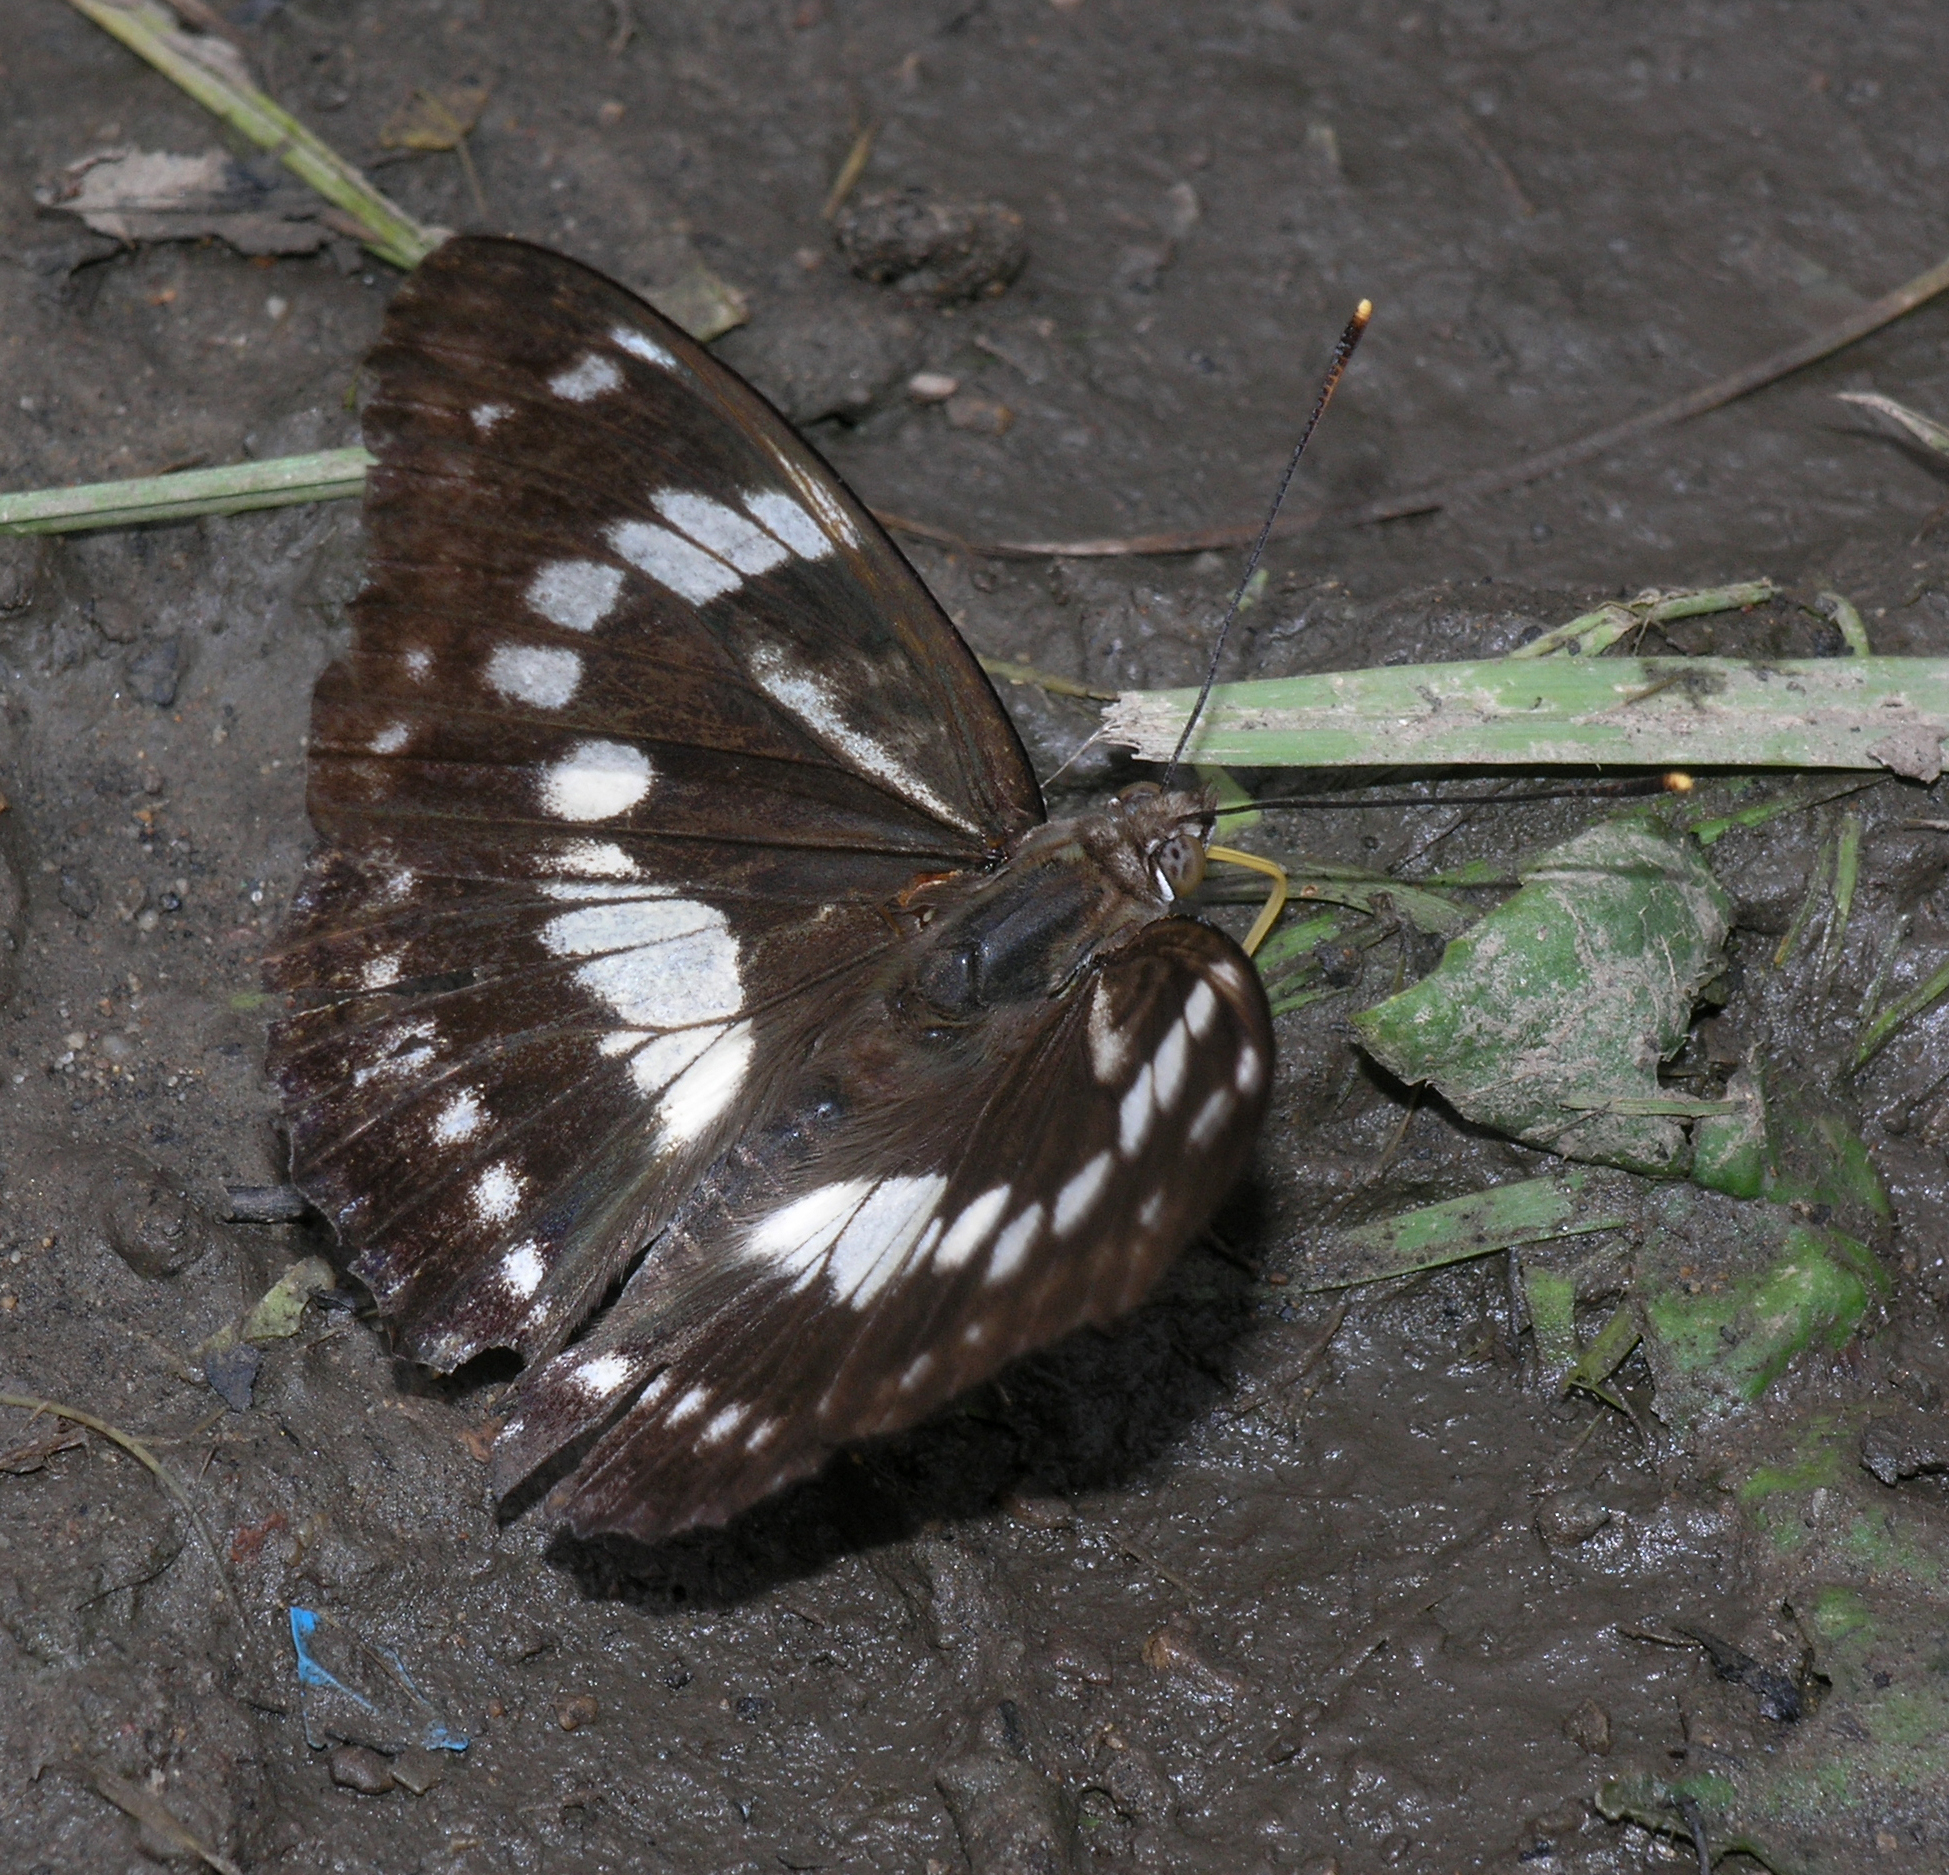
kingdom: Animalia
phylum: Arthropoda
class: Insecta
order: Lepidoptera
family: Nymphalidae
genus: Apatura
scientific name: Apatura nycteis
